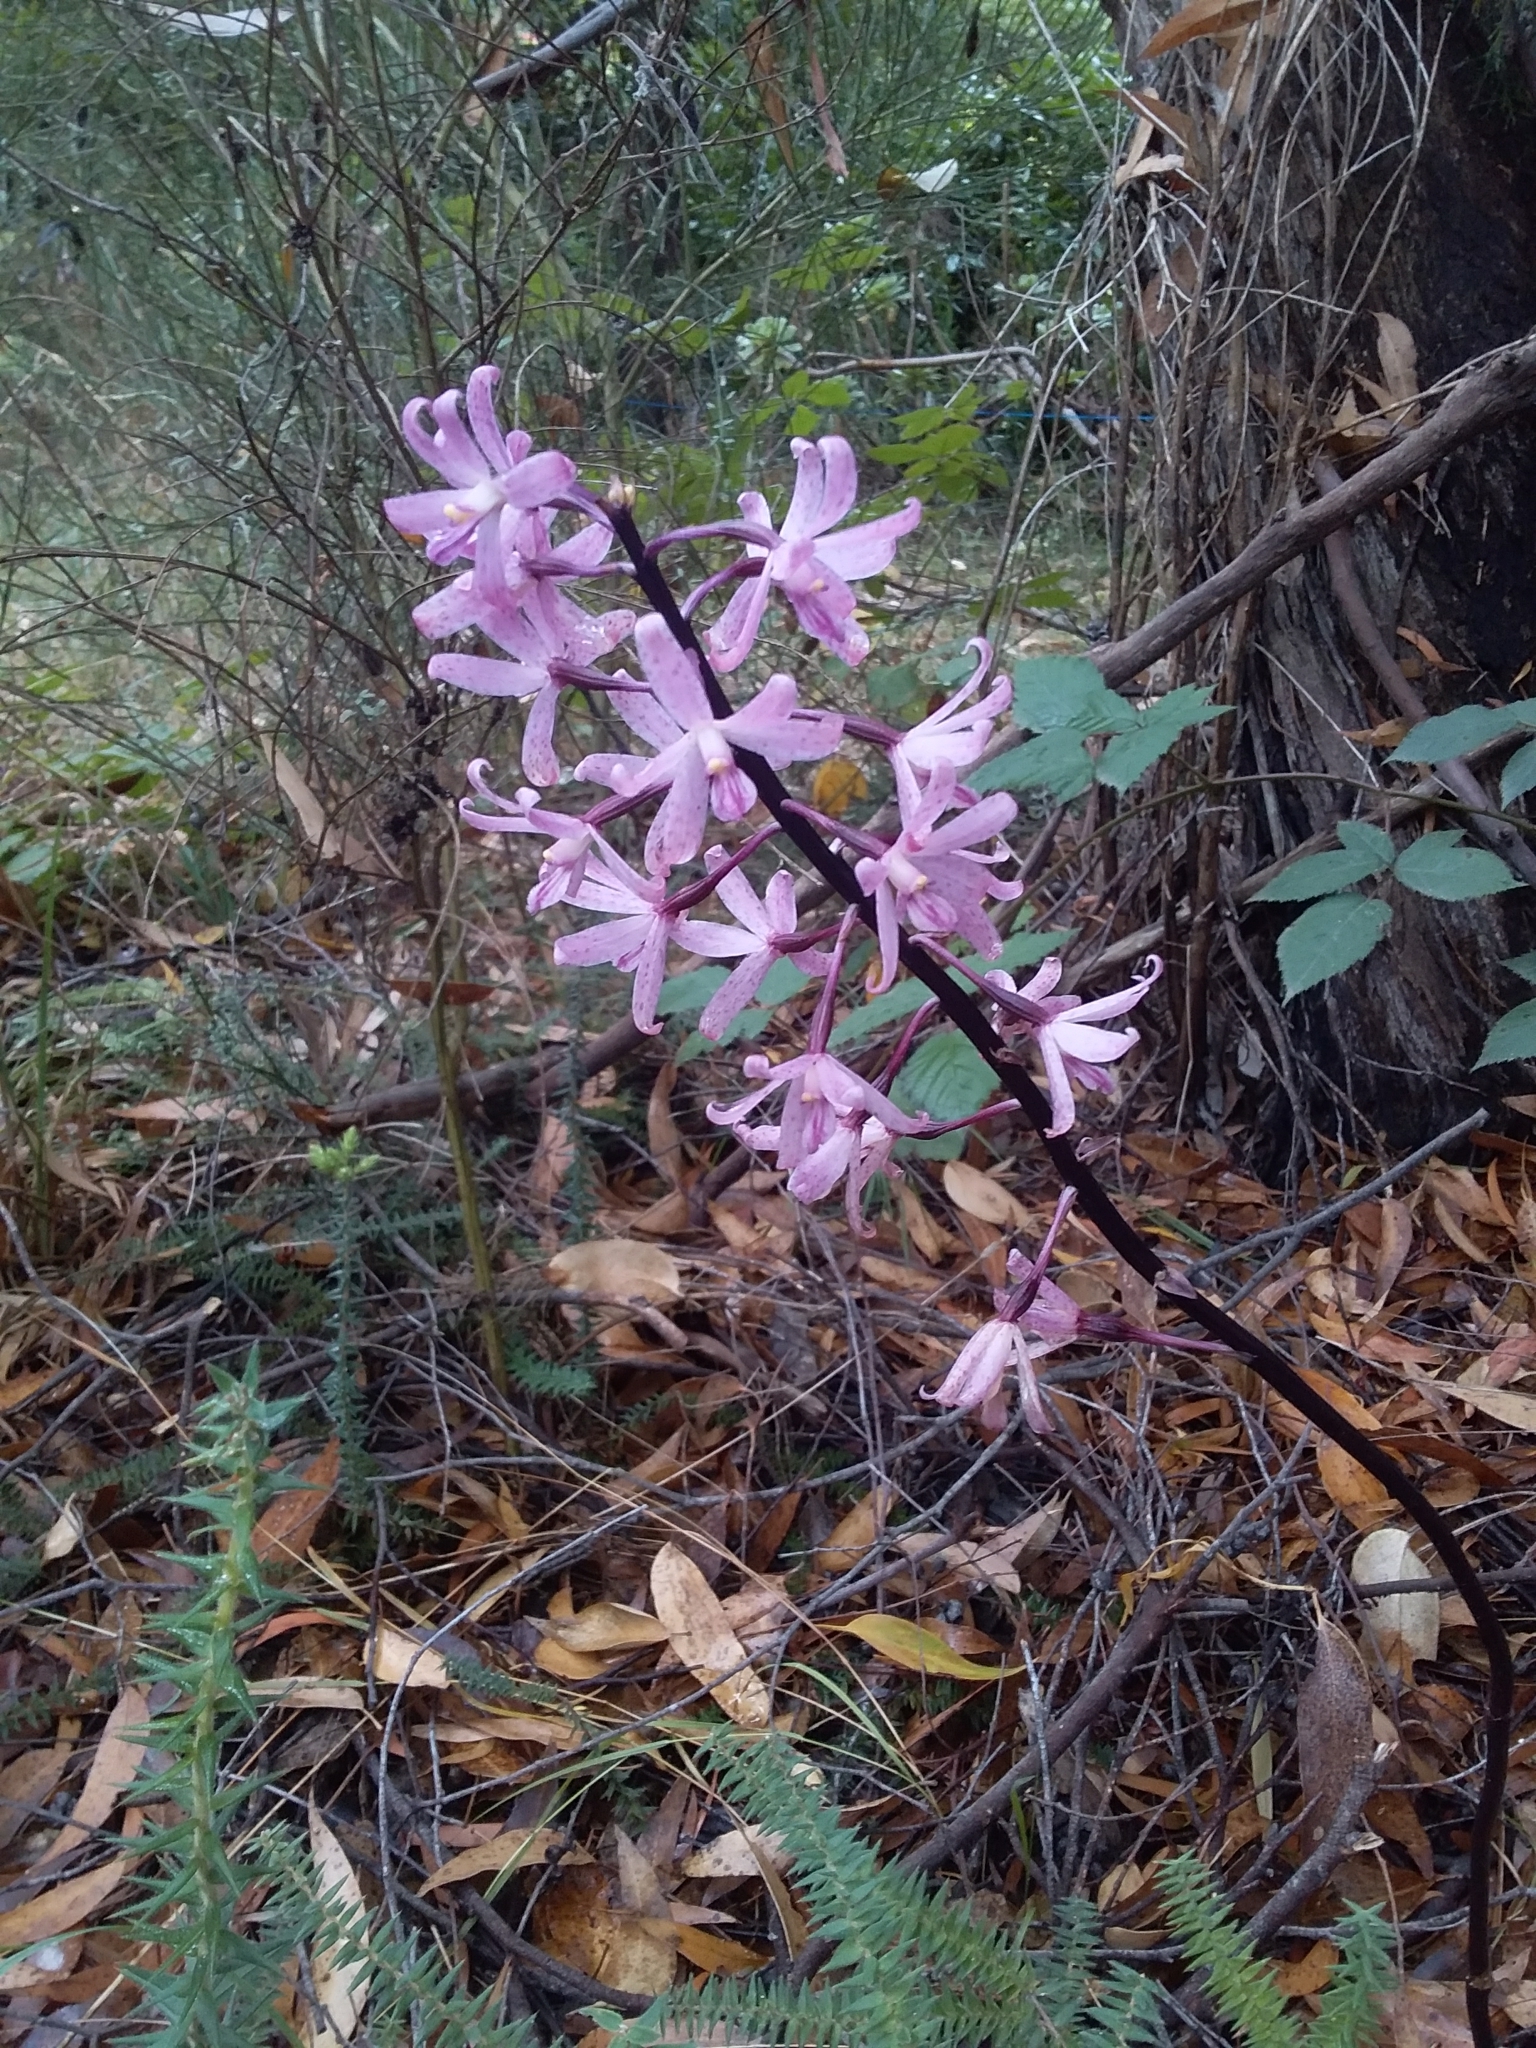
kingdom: Plantae
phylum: Tracheophyta
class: Liliopsida
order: Asparagales
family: Orchidaceae
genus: Dipodium
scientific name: Dipodium roseum
